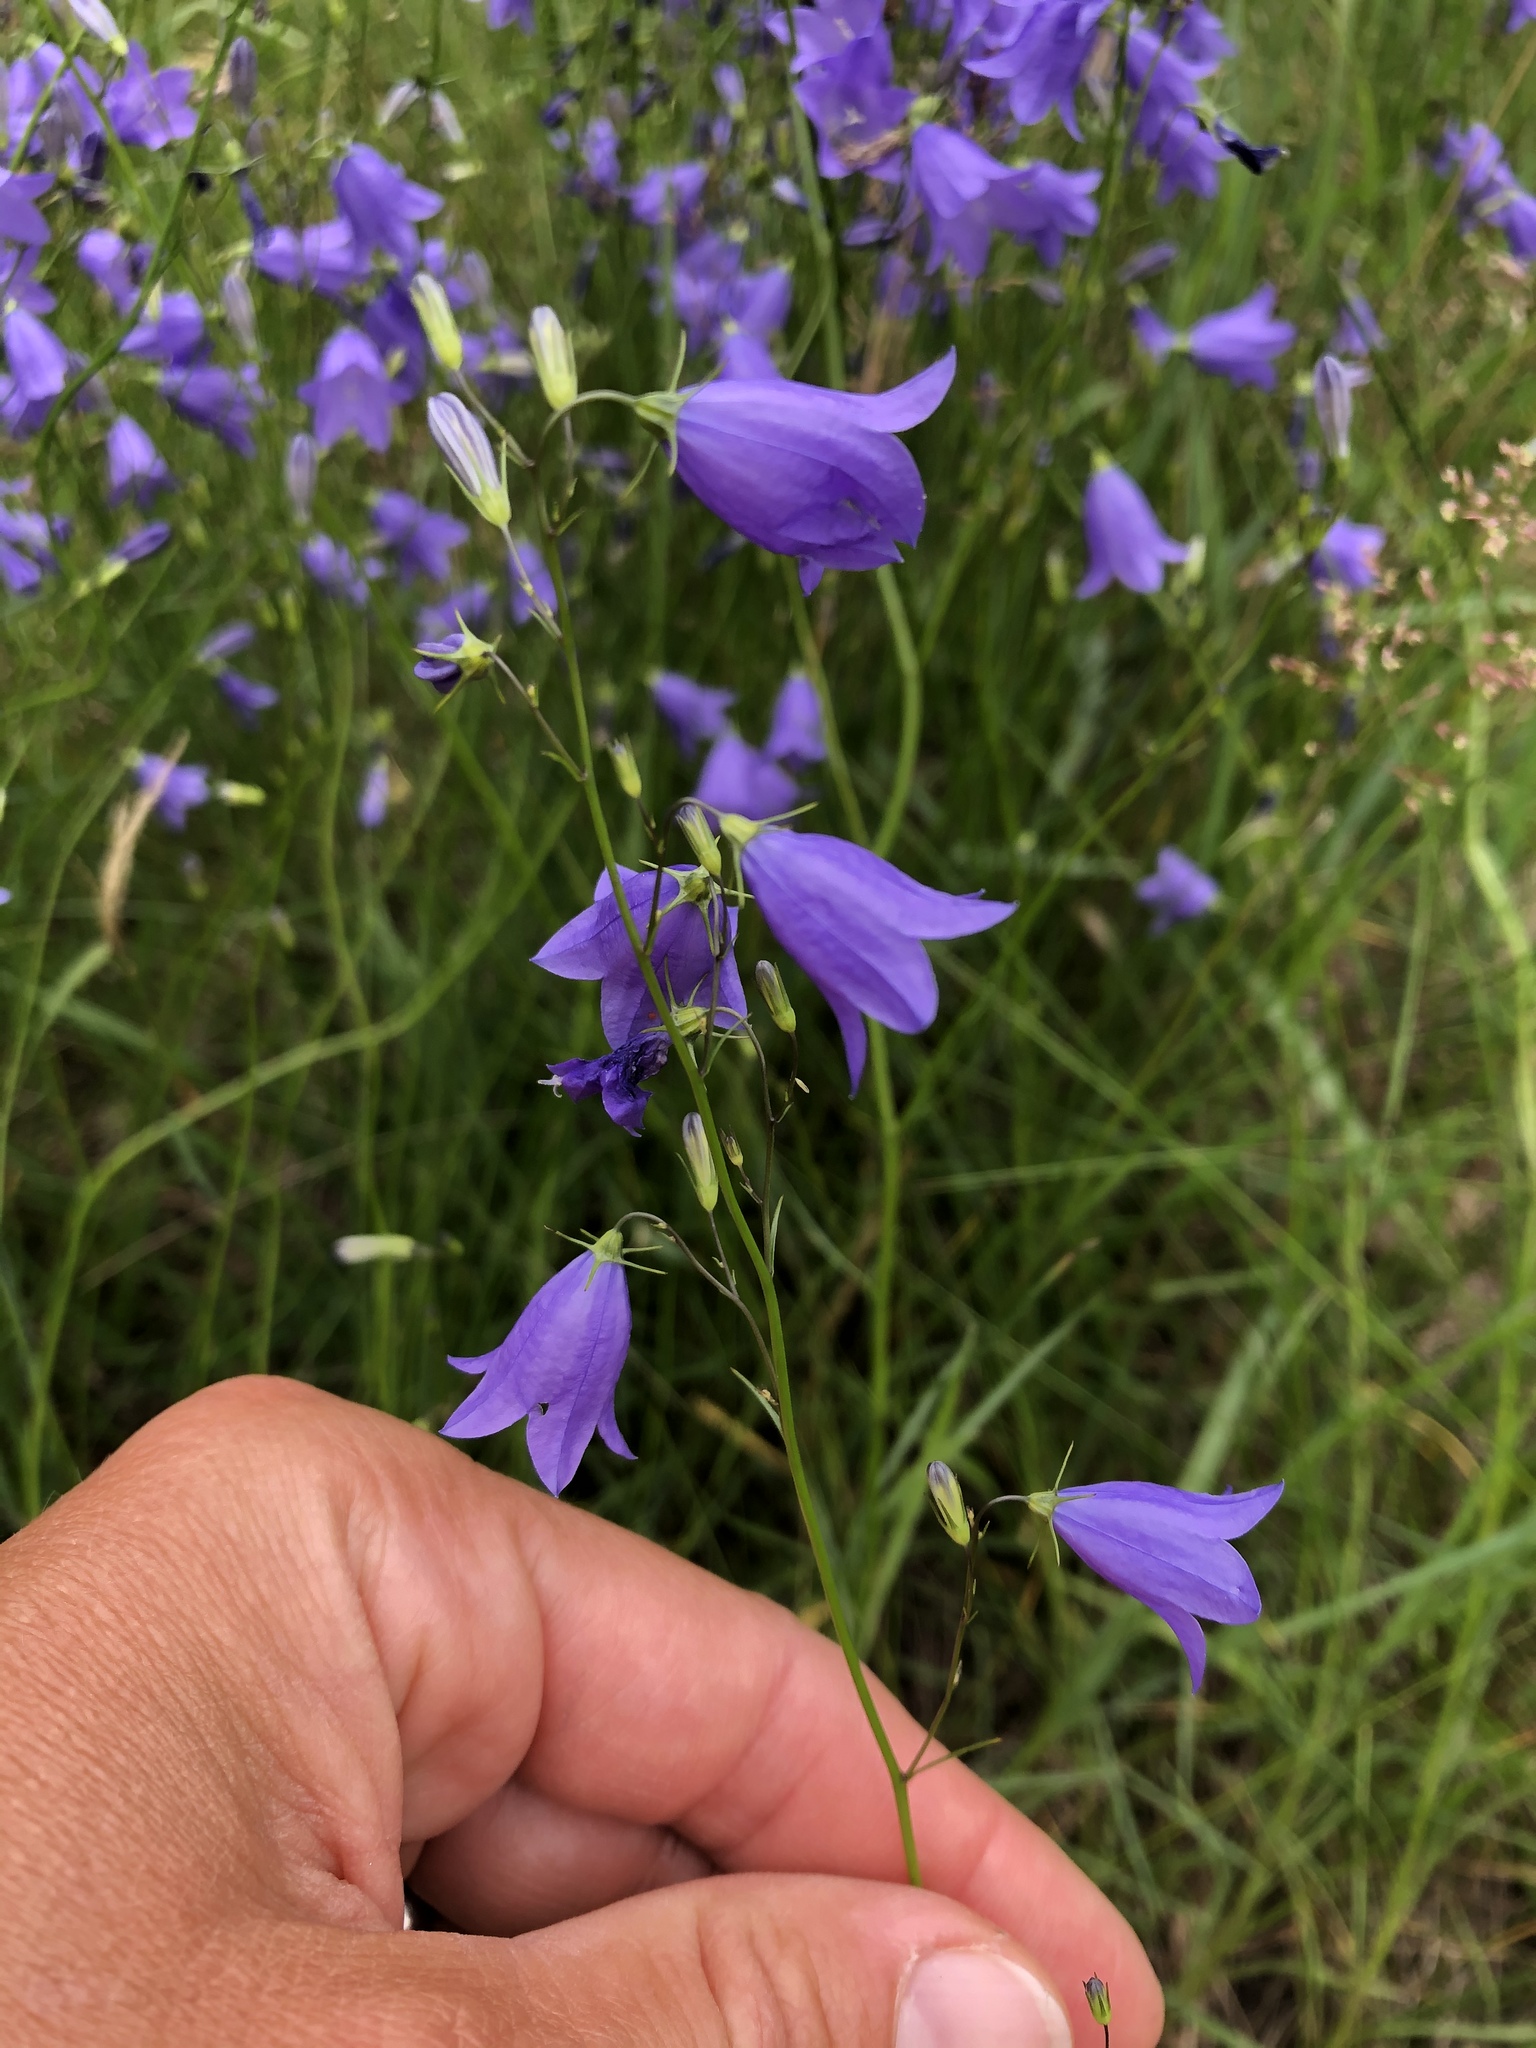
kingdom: Plantae
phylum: Tracheophyta
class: Magnoliopsida
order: Asterales
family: Campanulaceae
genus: Campanula
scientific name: Campanula rotundifolia
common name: Harebell
